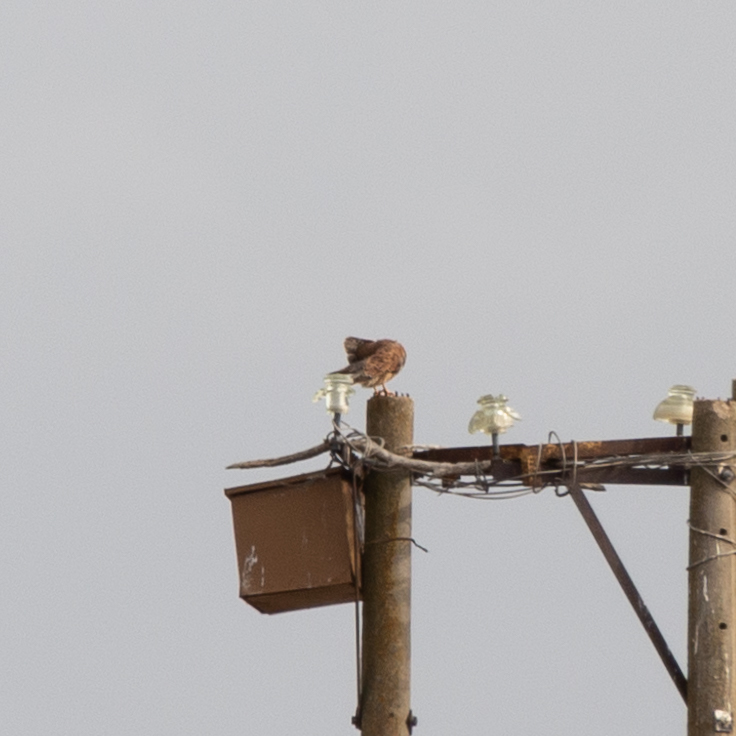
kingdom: Animalia
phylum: Chordata
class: Aves
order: Falconiformes
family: Falconidae
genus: Falco
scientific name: Falco tinnunculus
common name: Common kestrel
